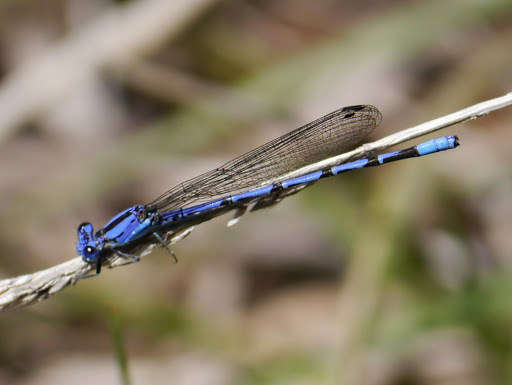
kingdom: Animalia
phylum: Arthropoda
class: Insecta
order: Odonata
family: Coenagrionidae
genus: Argia
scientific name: Argia extranea
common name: Spine-tipped dancer
